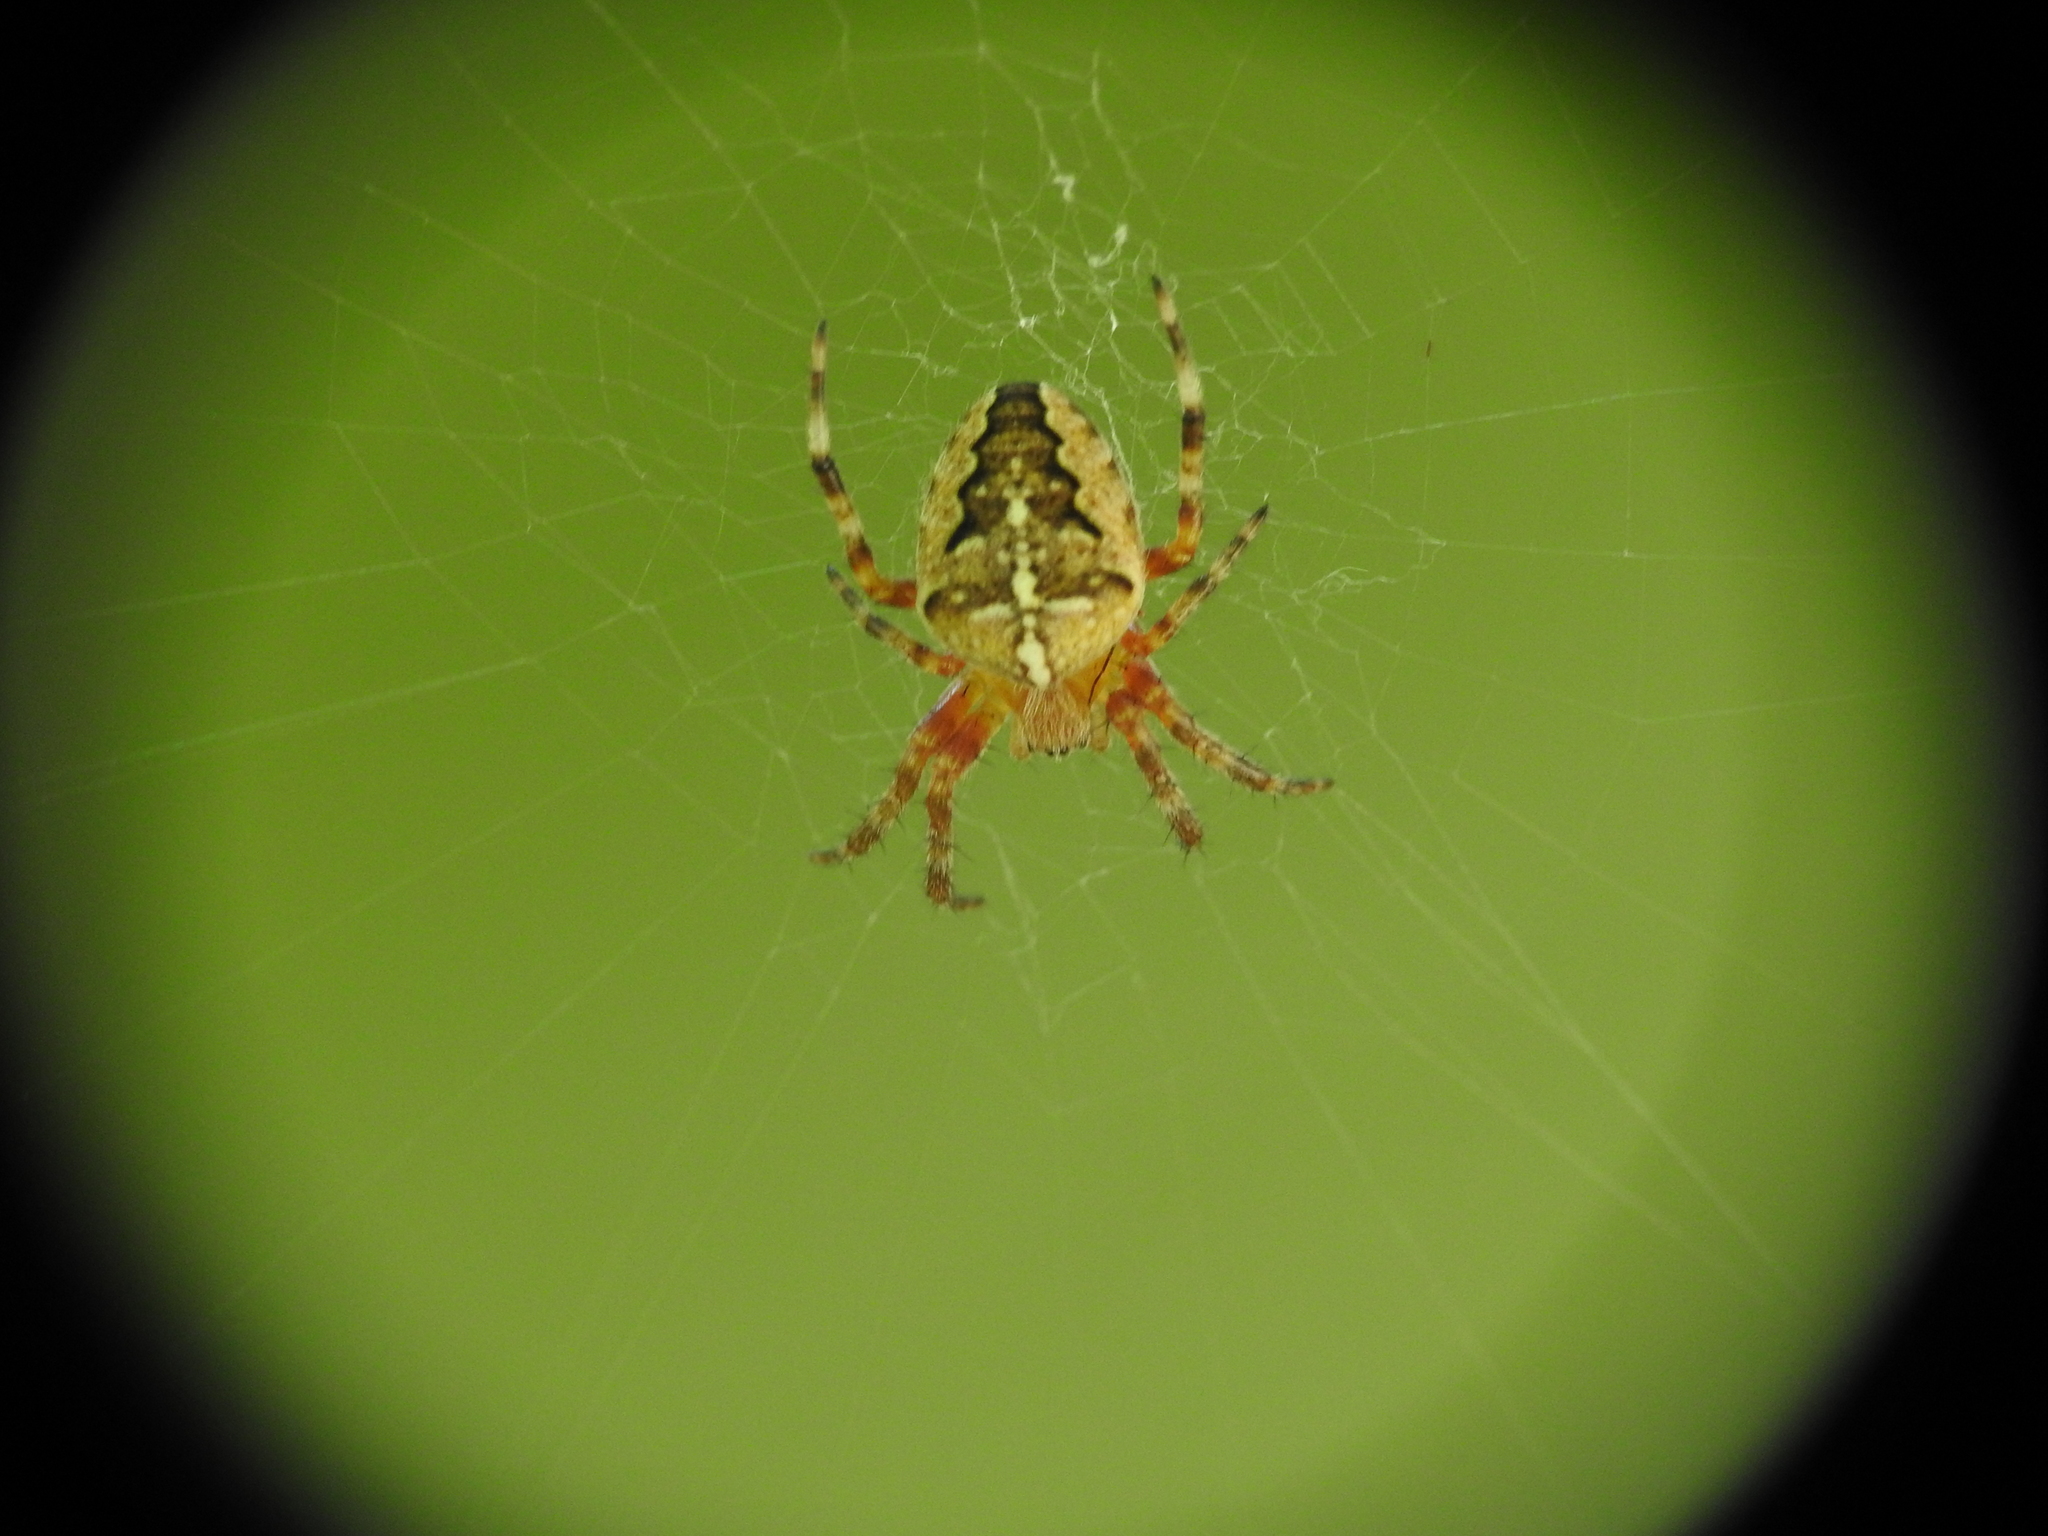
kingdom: Animalia
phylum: Arthropoda
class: Arachnida
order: Araneae
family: Araneidae
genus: Araneus
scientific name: Araneus diadematus
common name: Cross orbweaver
